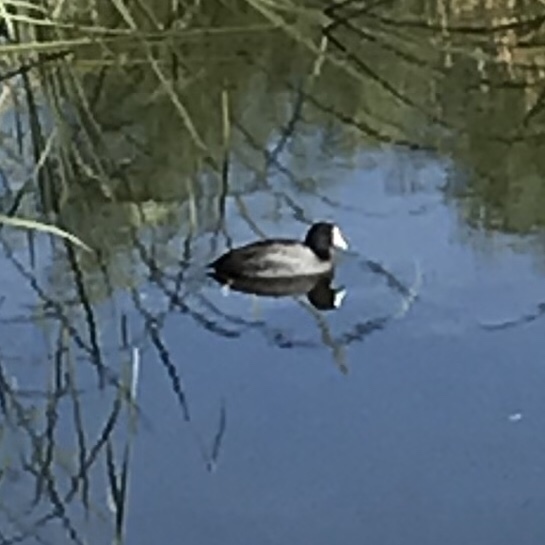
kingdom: Animalia
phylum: Chordata
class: Aves
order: Gruiformes
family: Rallidae
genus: Fulica
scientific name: Fulica americana
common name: American coot
